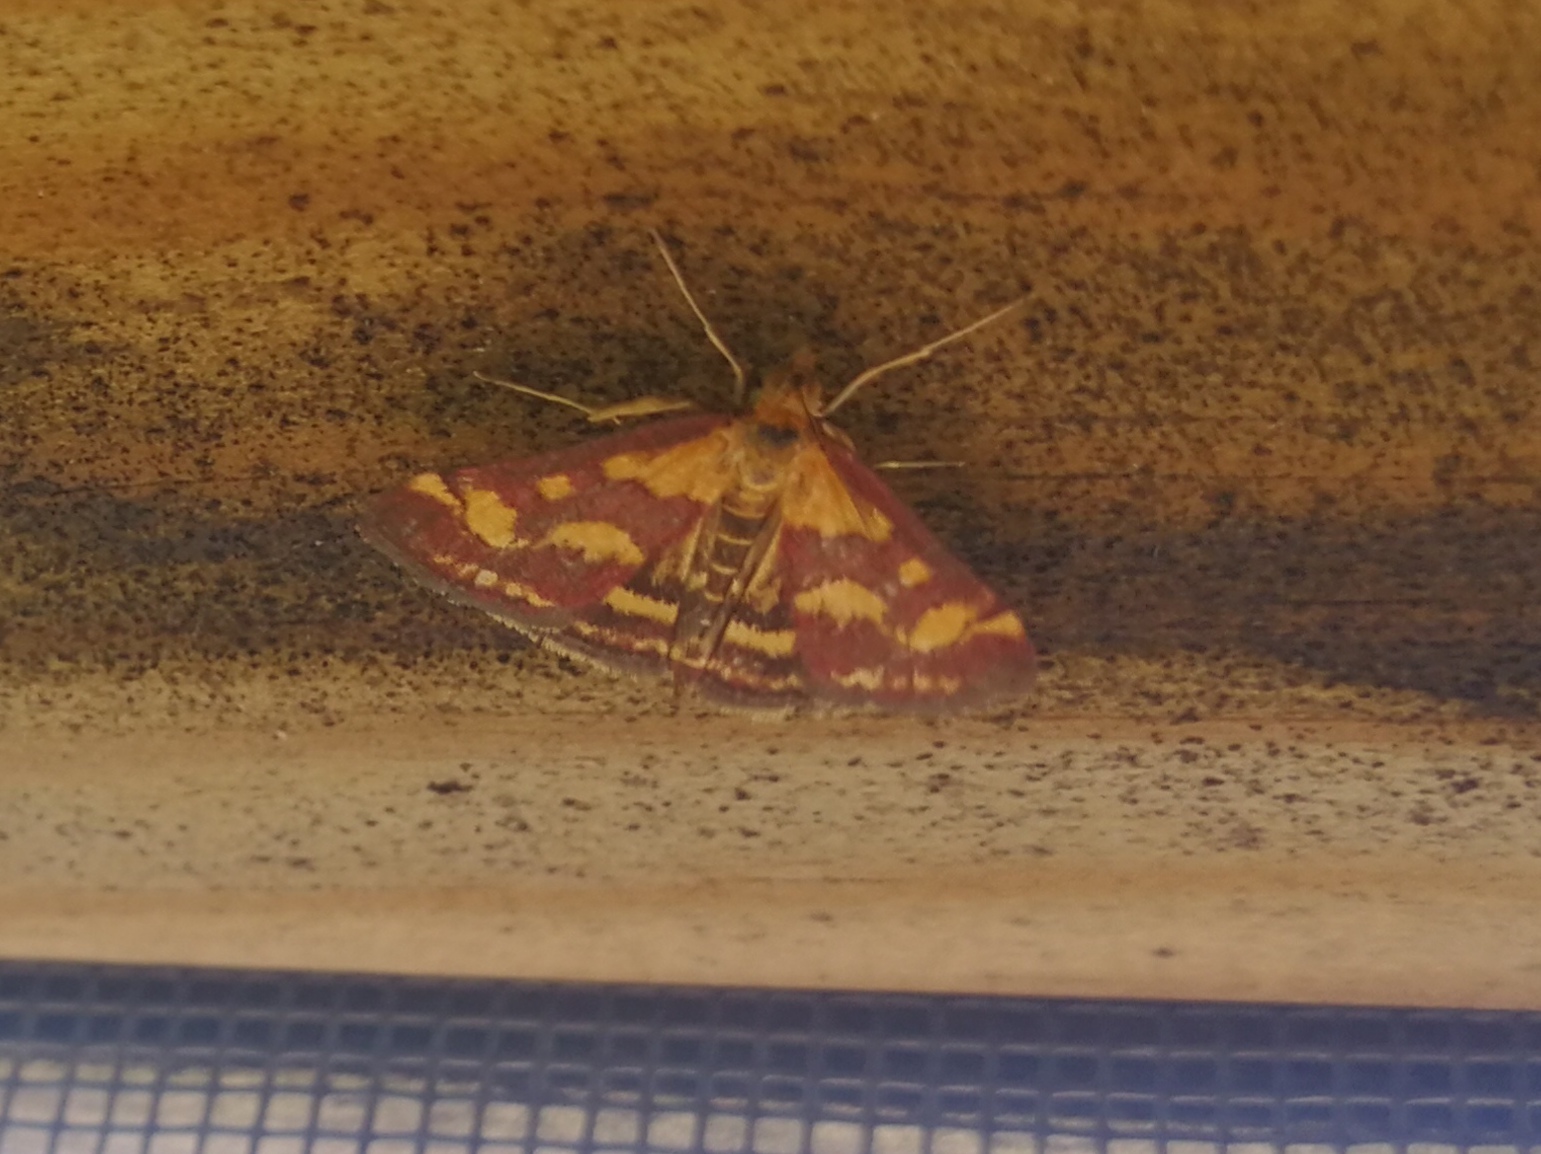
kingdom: Animalia
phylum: Arthropoda
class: Insecta
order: Lepidoptera
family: Crambidae
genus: Pyrausta
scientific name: Pyrausta purpuralis
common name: Common purple & gold
